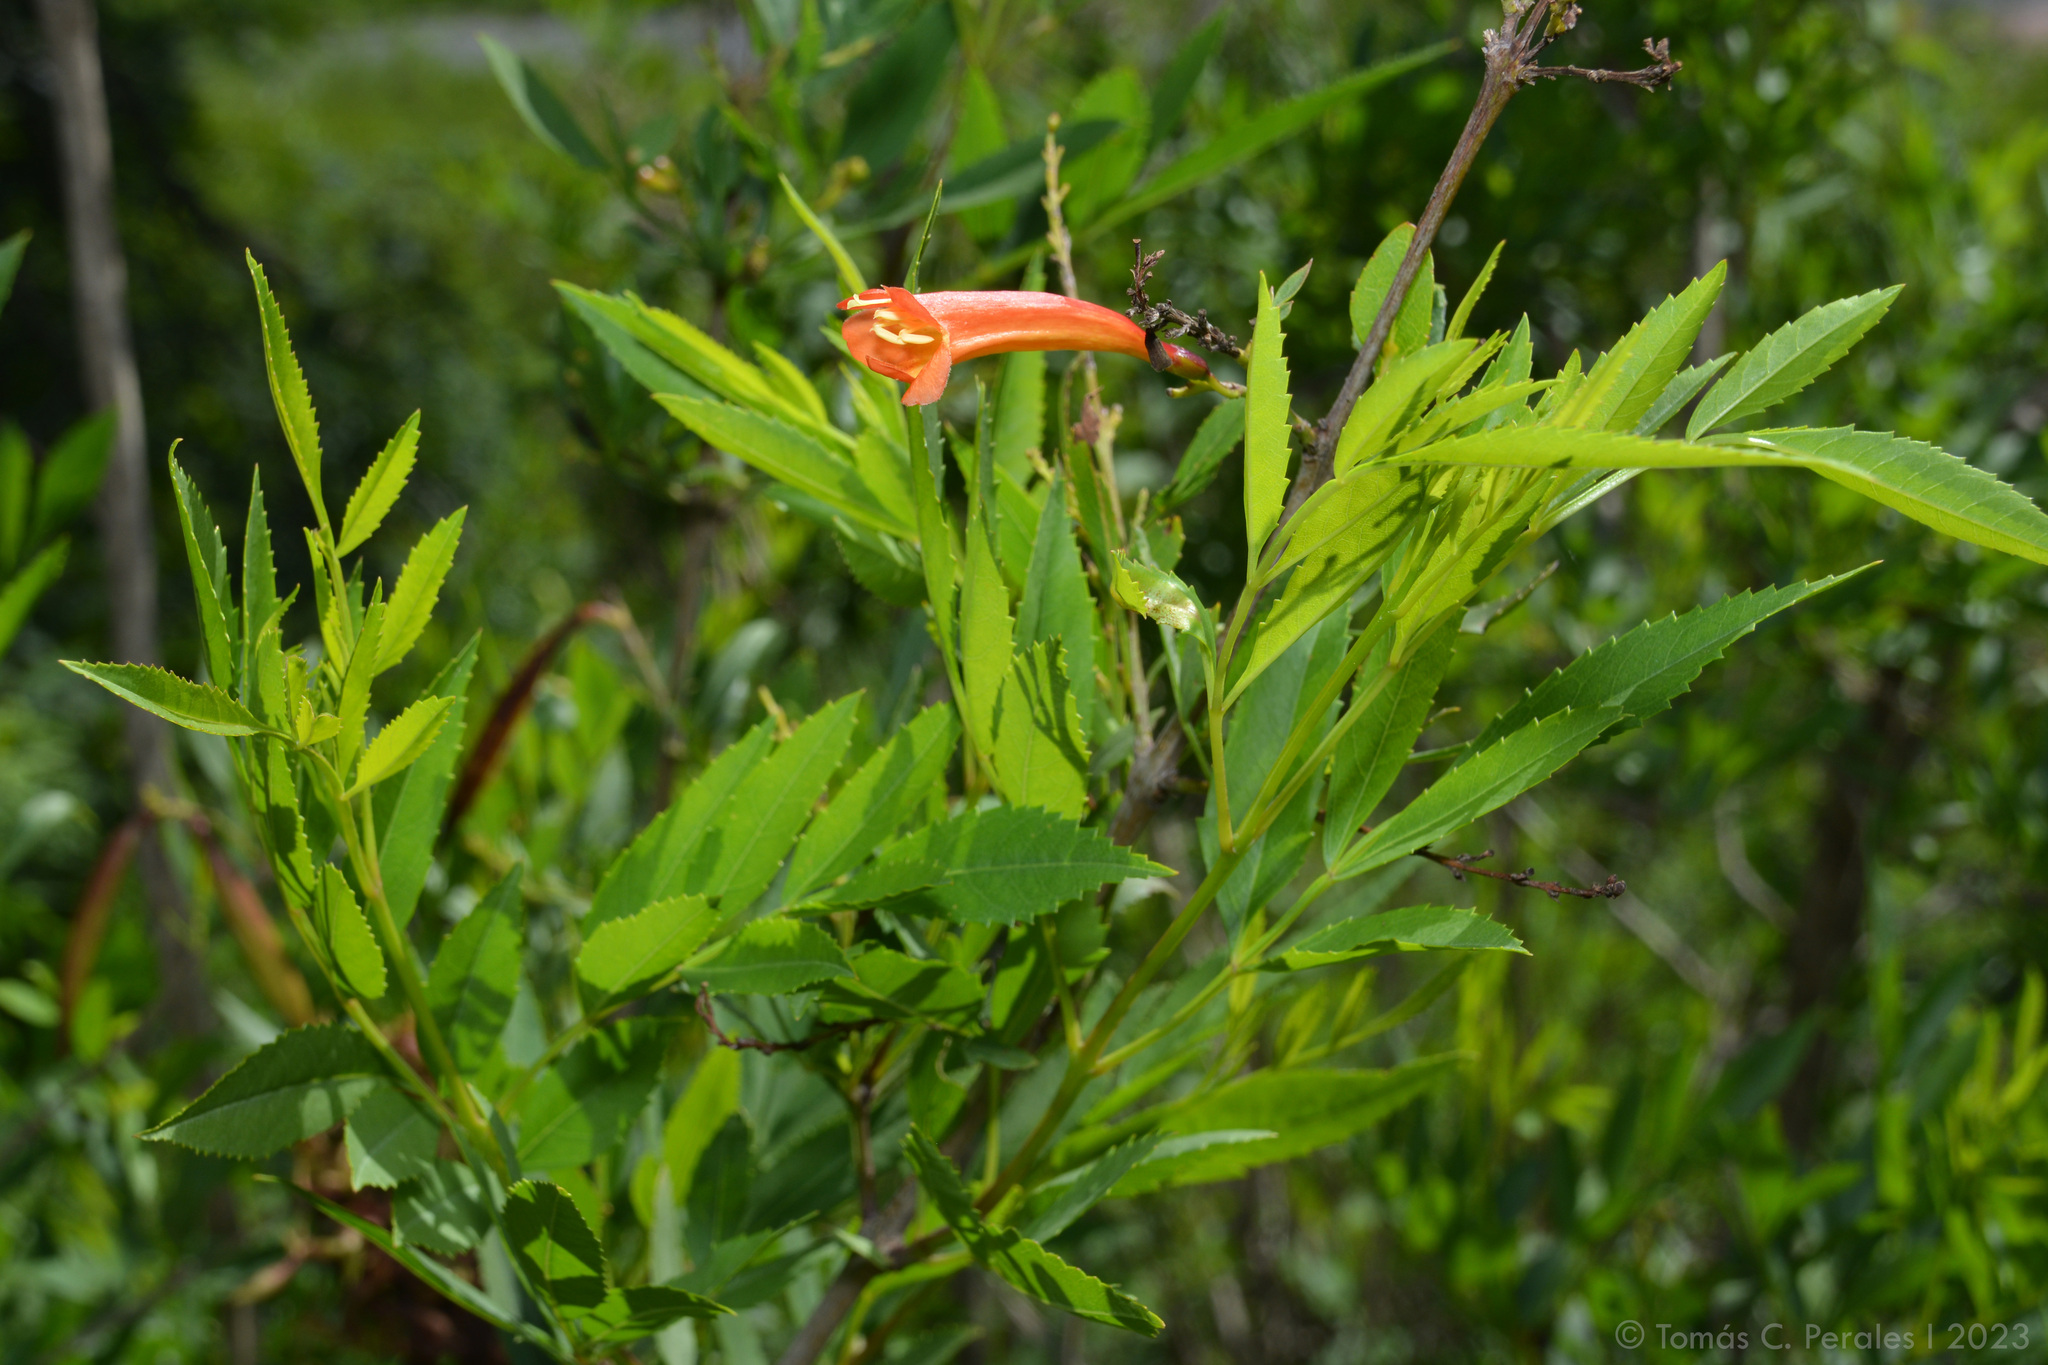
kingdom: Plantae
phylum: Tracheophyta
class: Magnoliopsida
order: Lamiales
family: Bignoniaceae
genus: Tecoma
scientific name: Tecoma fulva
